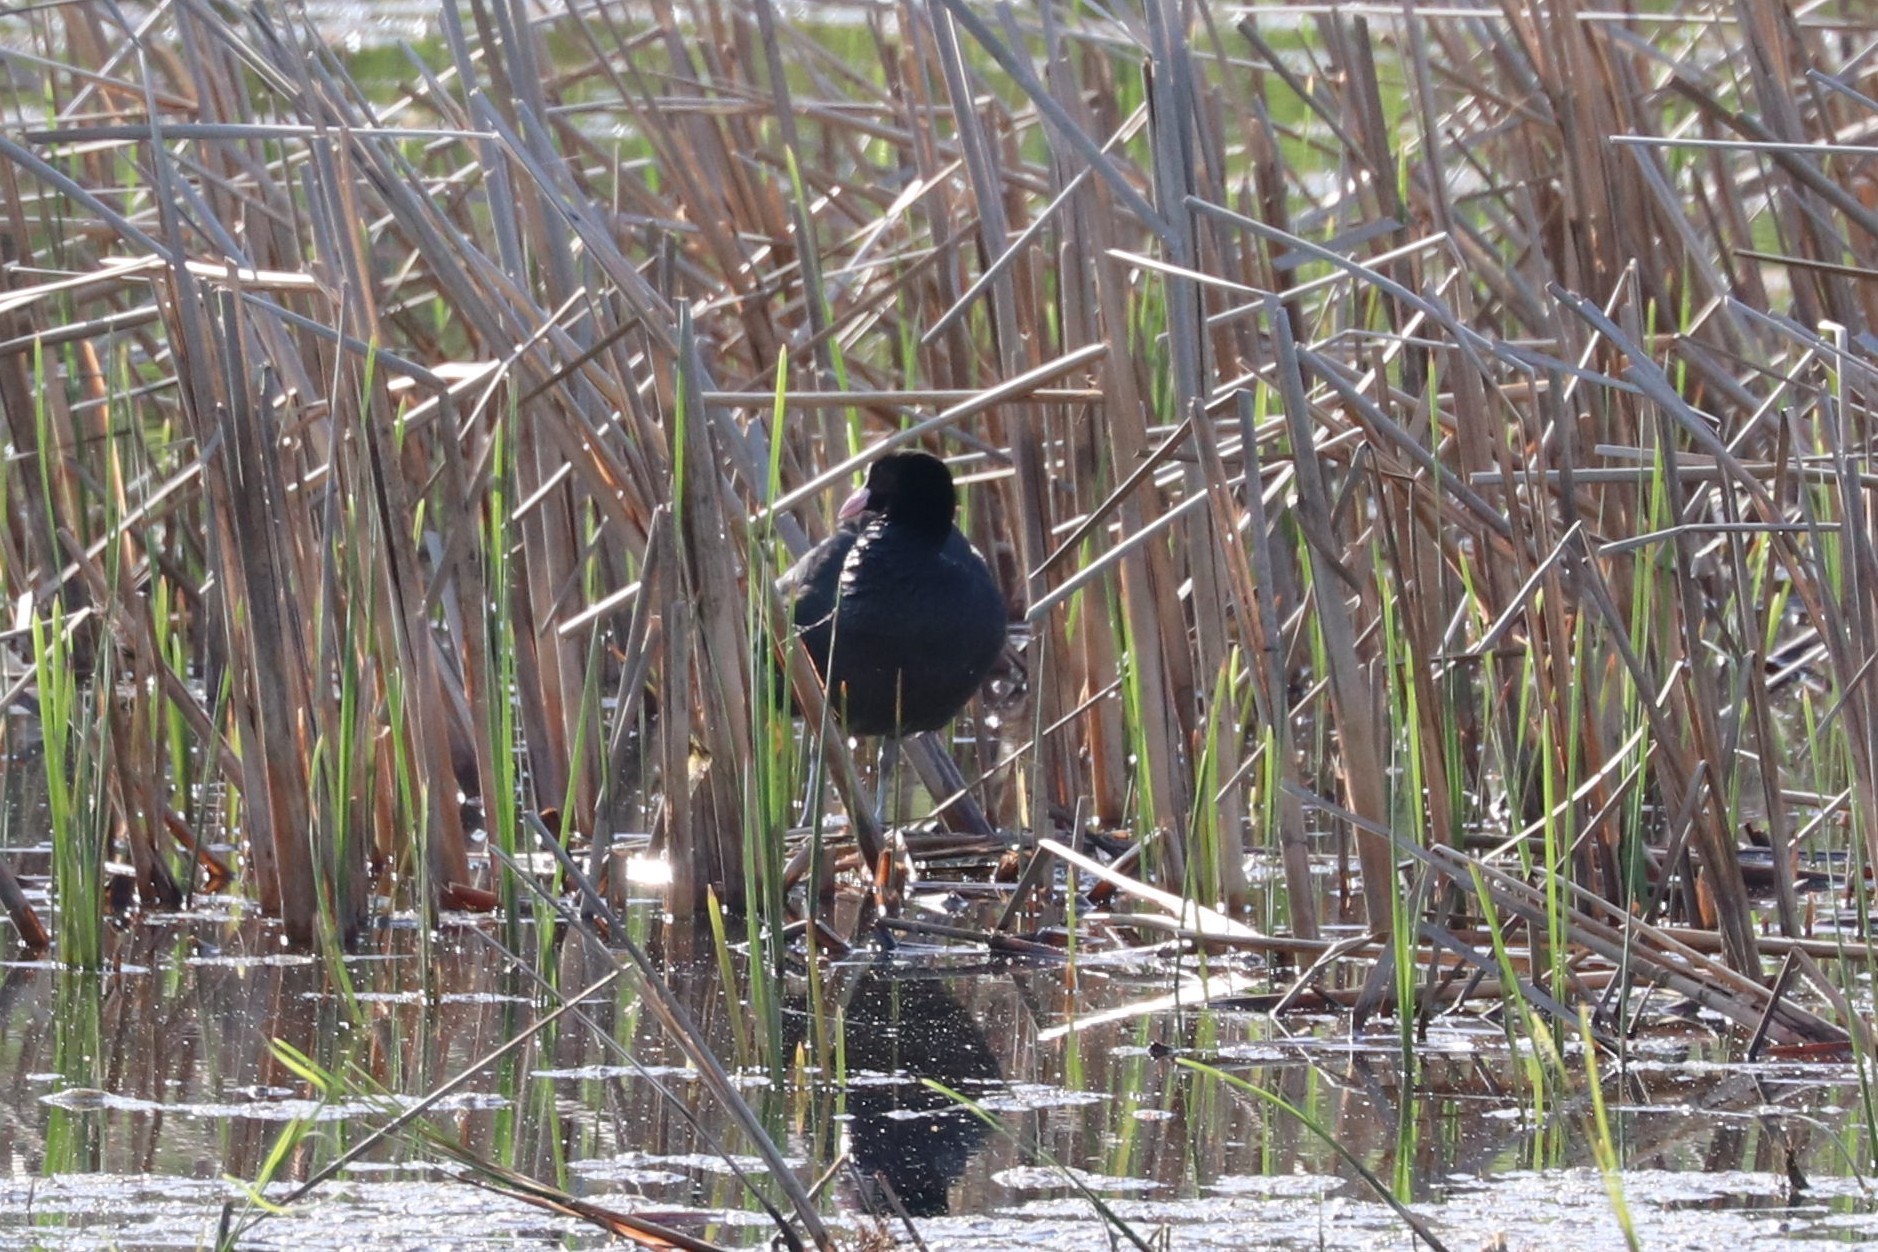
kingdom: Animalia
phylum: Chordata
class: Aves
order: Gruiformes
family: Rallidae
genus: Fulica
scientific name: Fulica atra
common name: Eurasian coot
